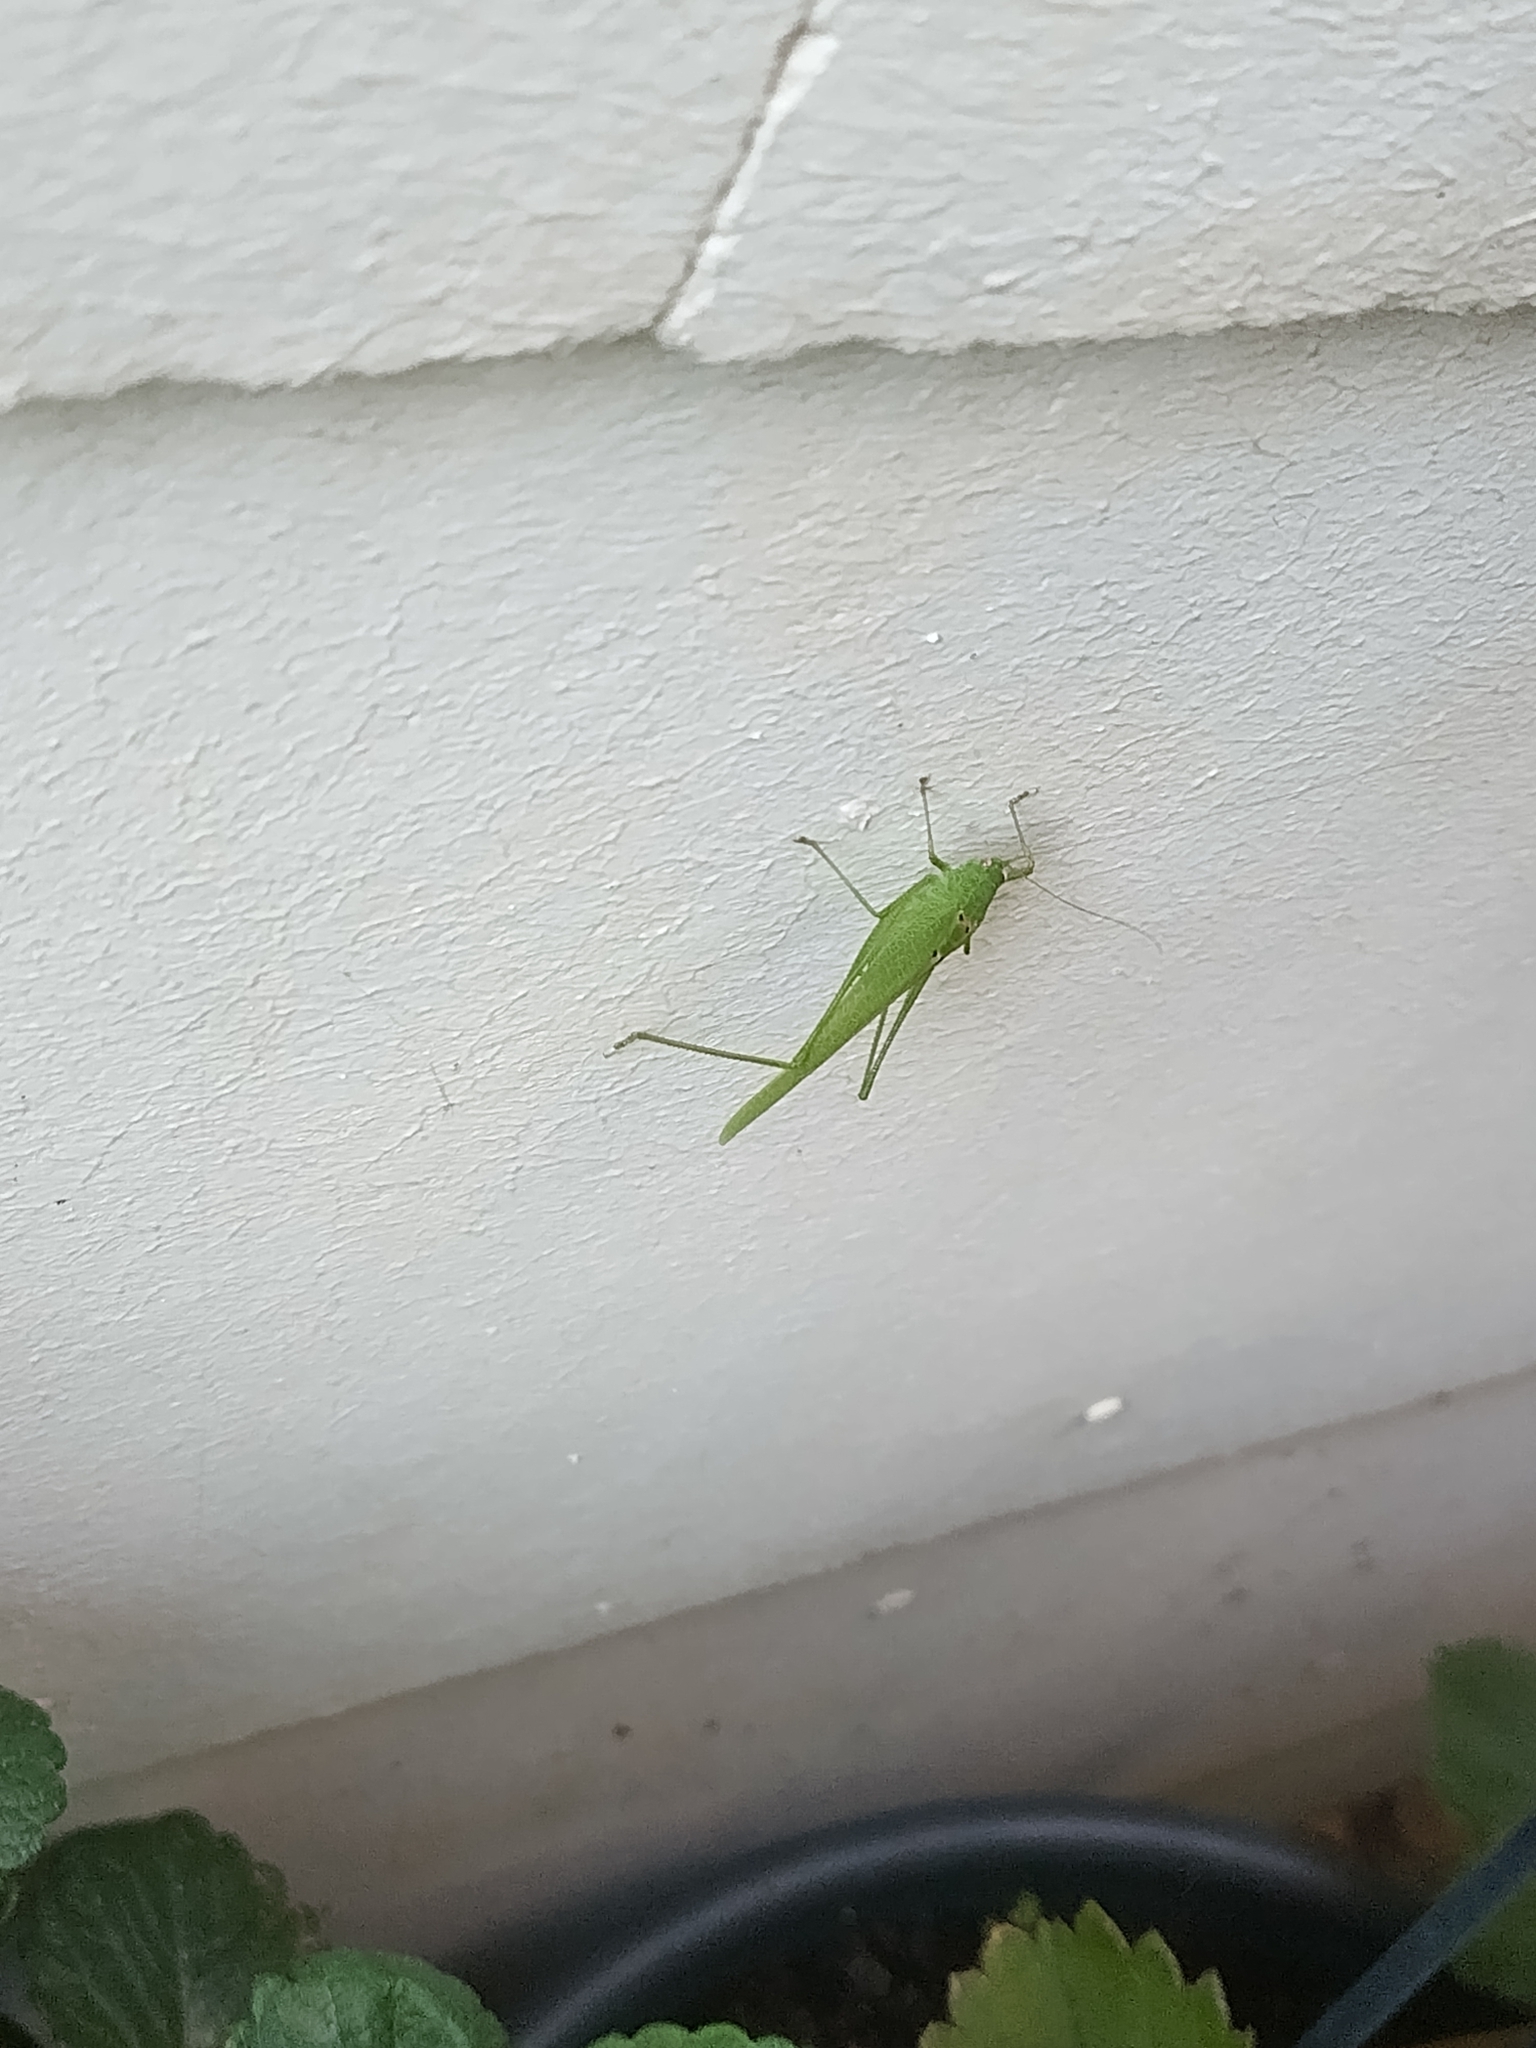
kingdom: Animalia
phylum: Arthropoda
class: Insecta
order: Orthoptera
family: Tettigoniidae
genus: Phaneroptera
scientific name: Phaneroptera nana
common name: Southern sickle bush-cricket
